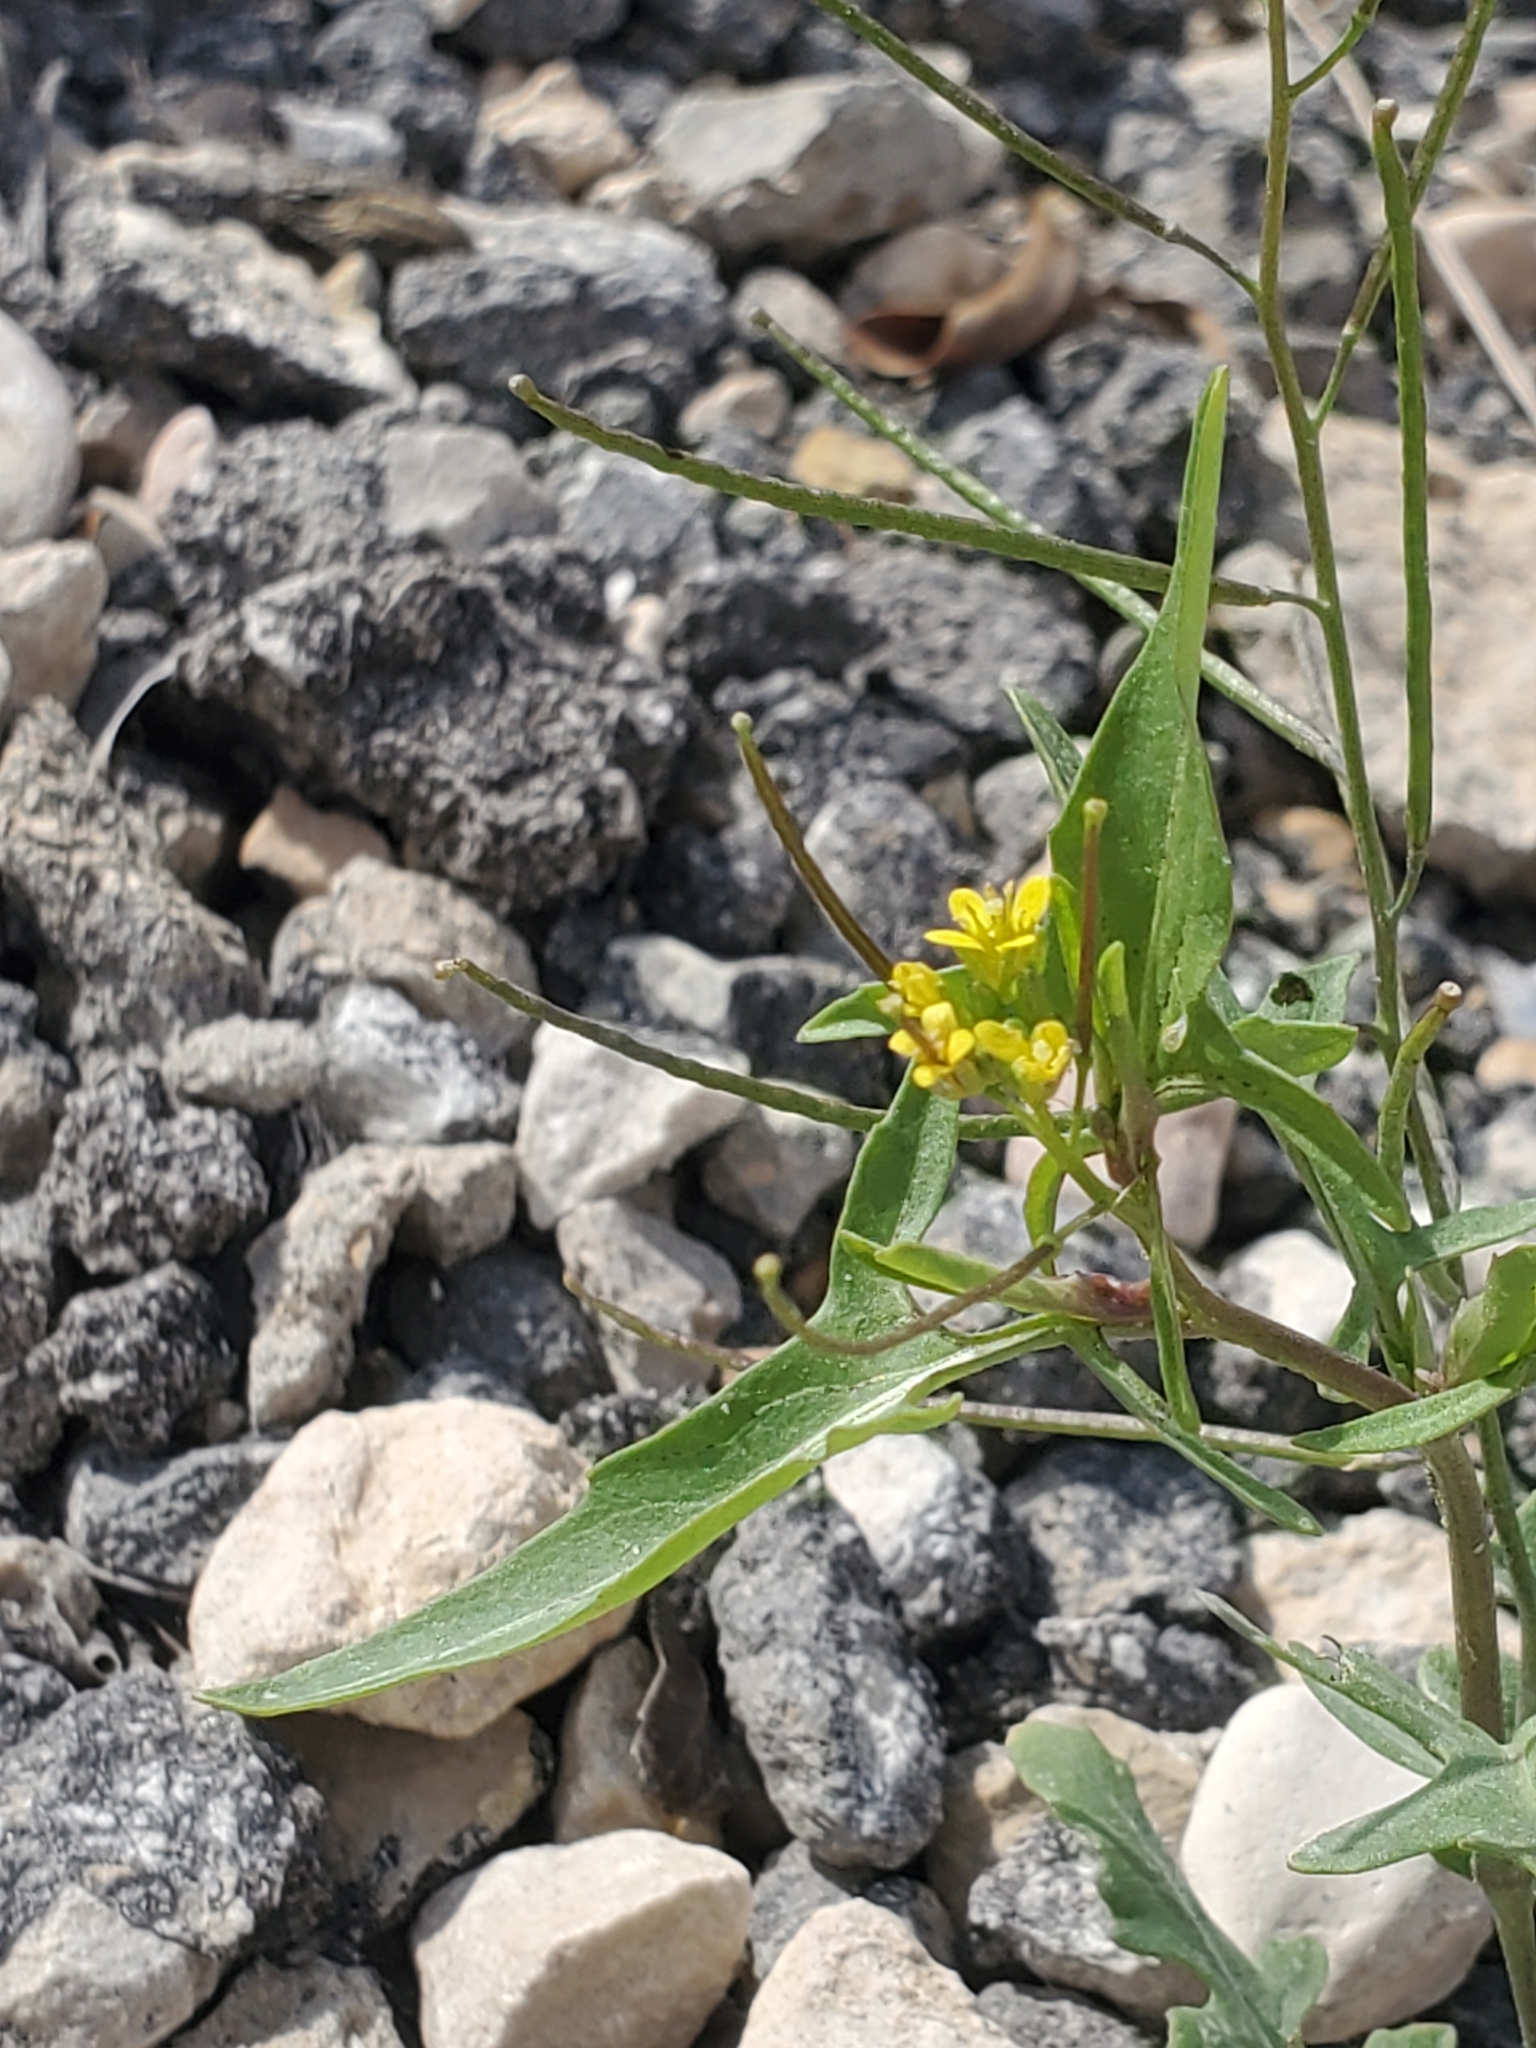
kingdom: Plantae
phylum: Tracheophyta
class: Magnoliopsida
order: Brassicales
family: Brassicaceae
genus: Sisymbrium
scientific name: Sisymbrium irio
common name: London rocket
